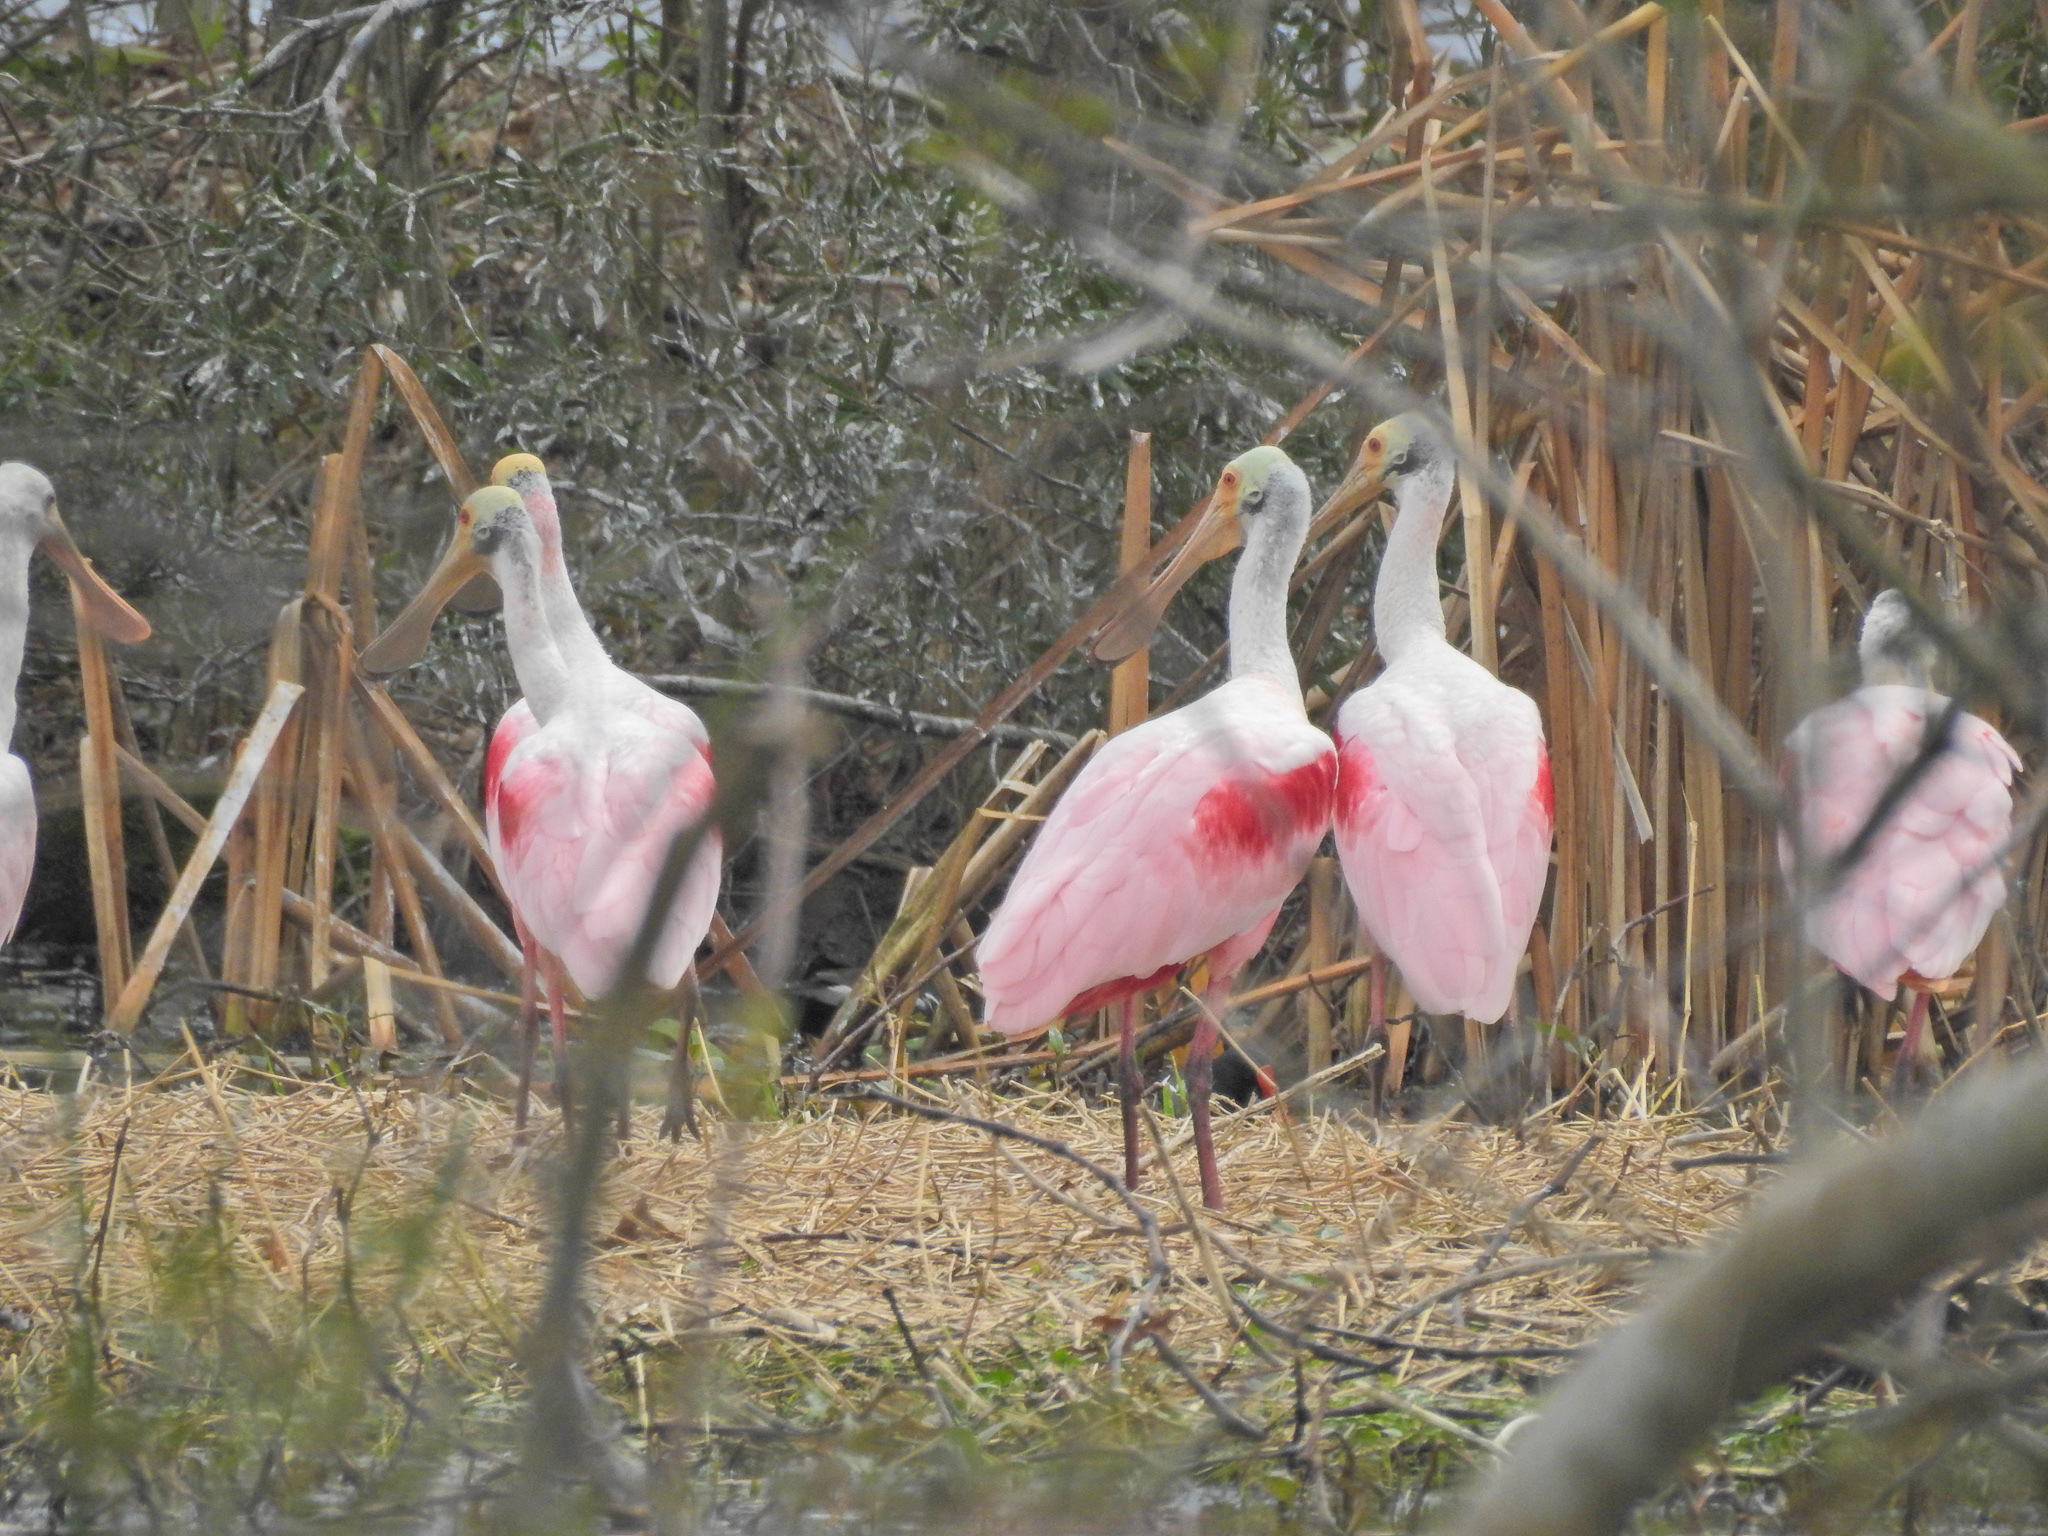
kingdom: Animalia
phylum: Chordata
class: Aves
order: Pelecaniformes
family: Threskiornithidae
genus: Platalea
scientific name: Platalea ajaja
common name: Roseate spoonbill
